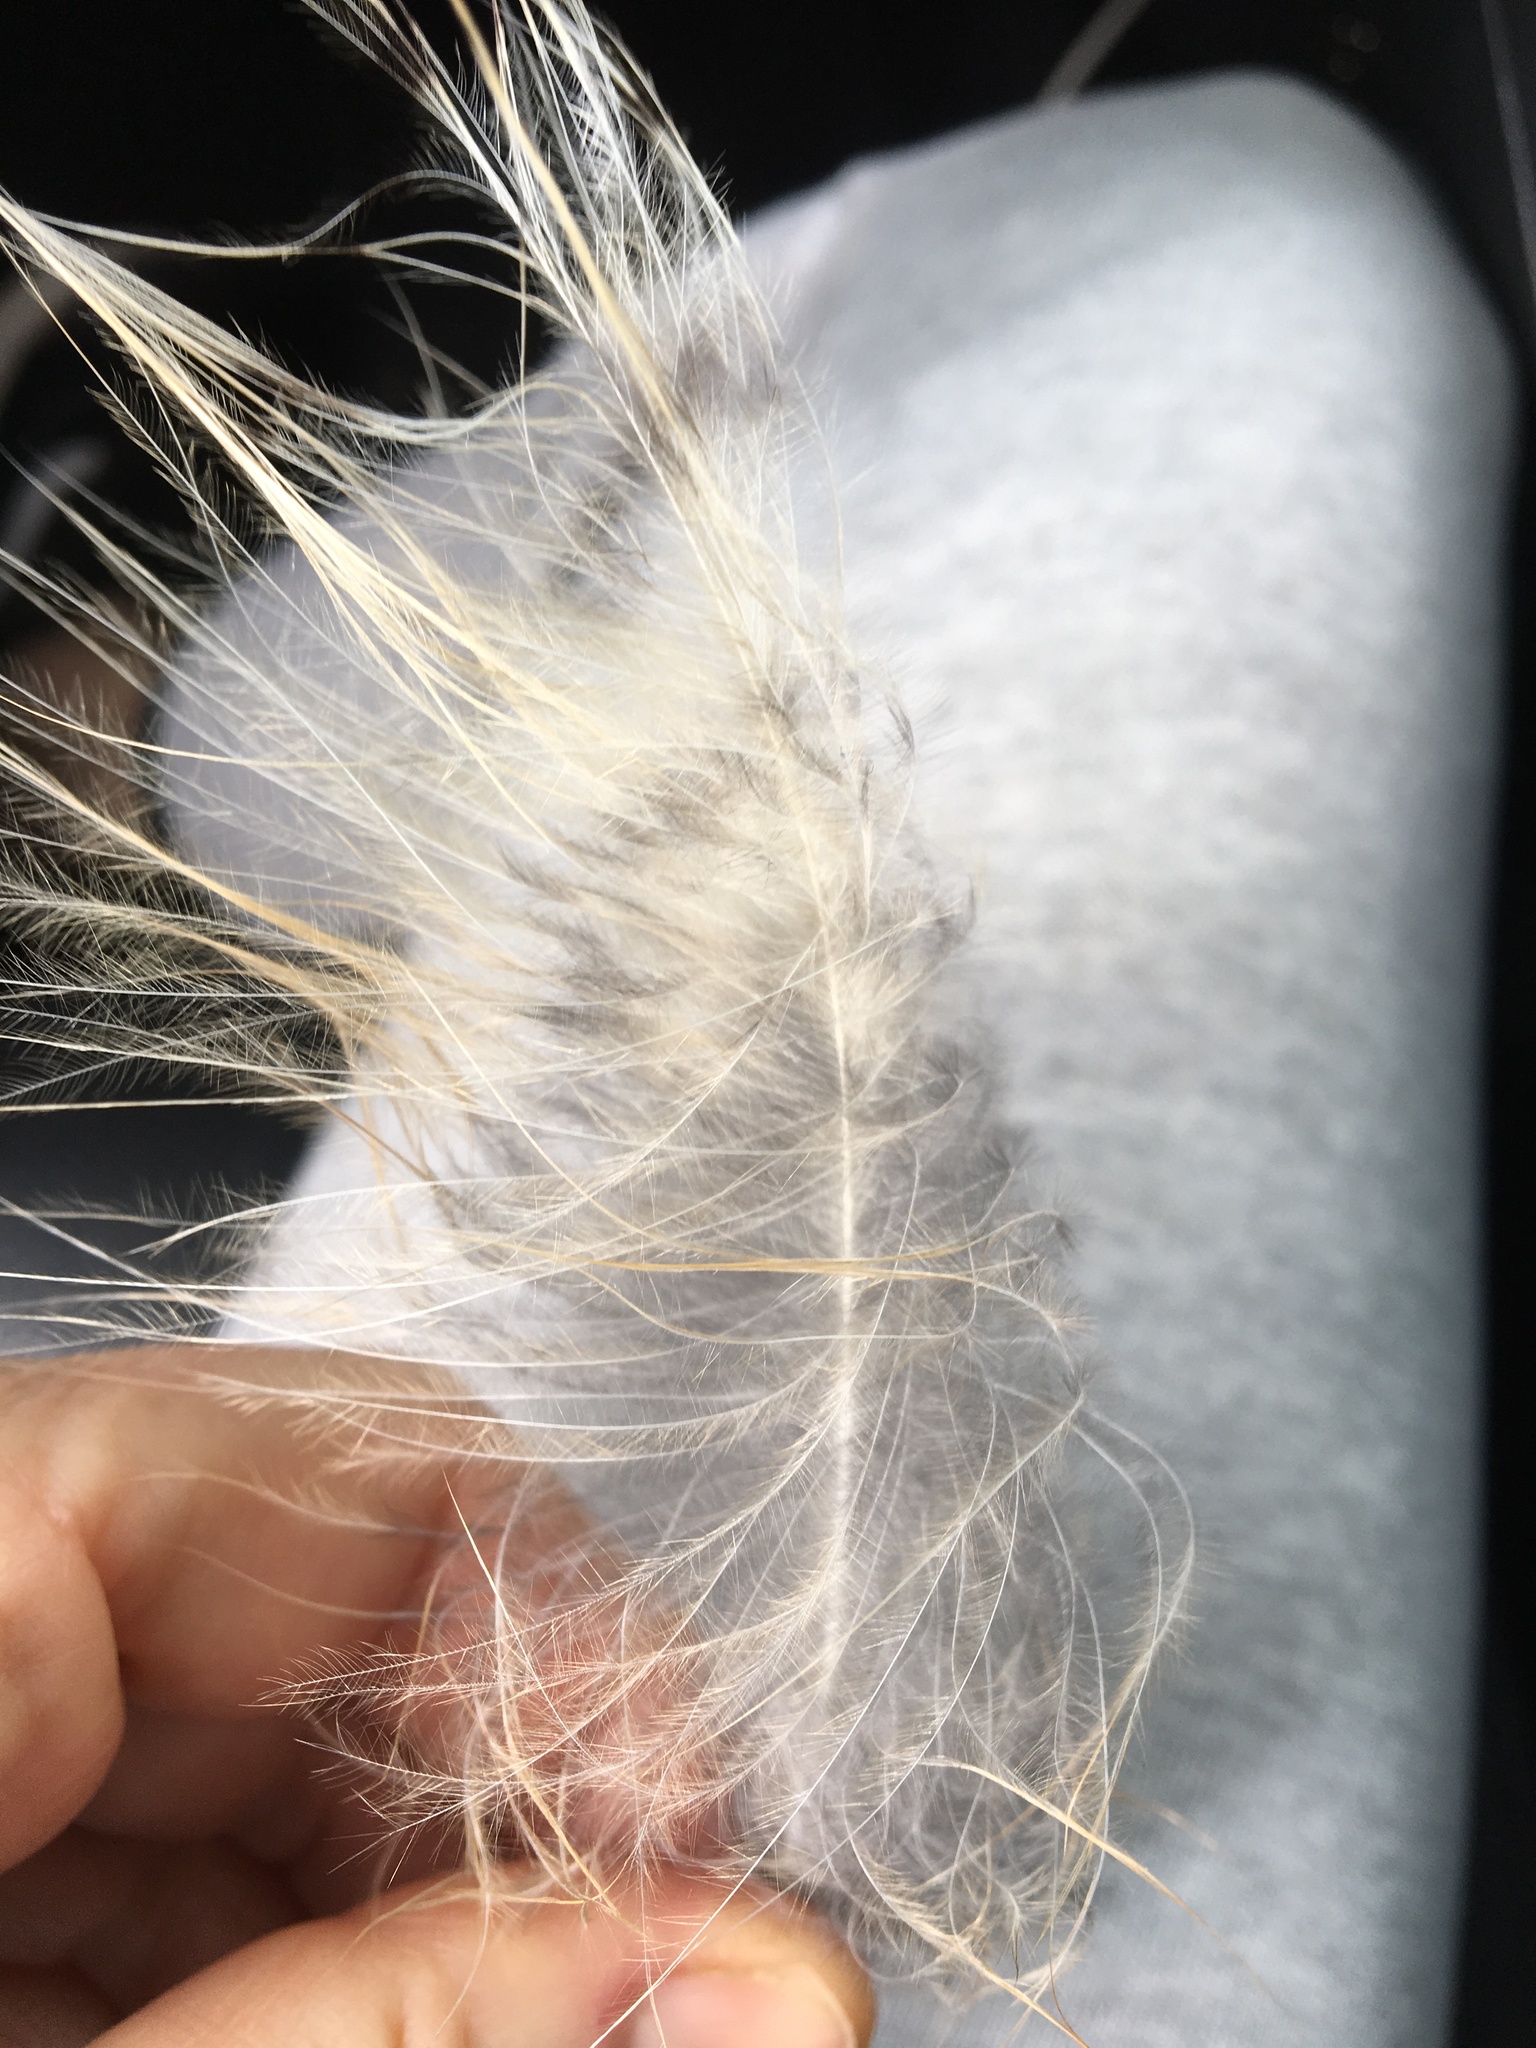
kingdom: Animalia
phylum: Chordata
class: Aves
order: Strigiformes
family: Strigidae
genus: Bubo
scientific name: Bubo virginianus
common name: Great horned owl
